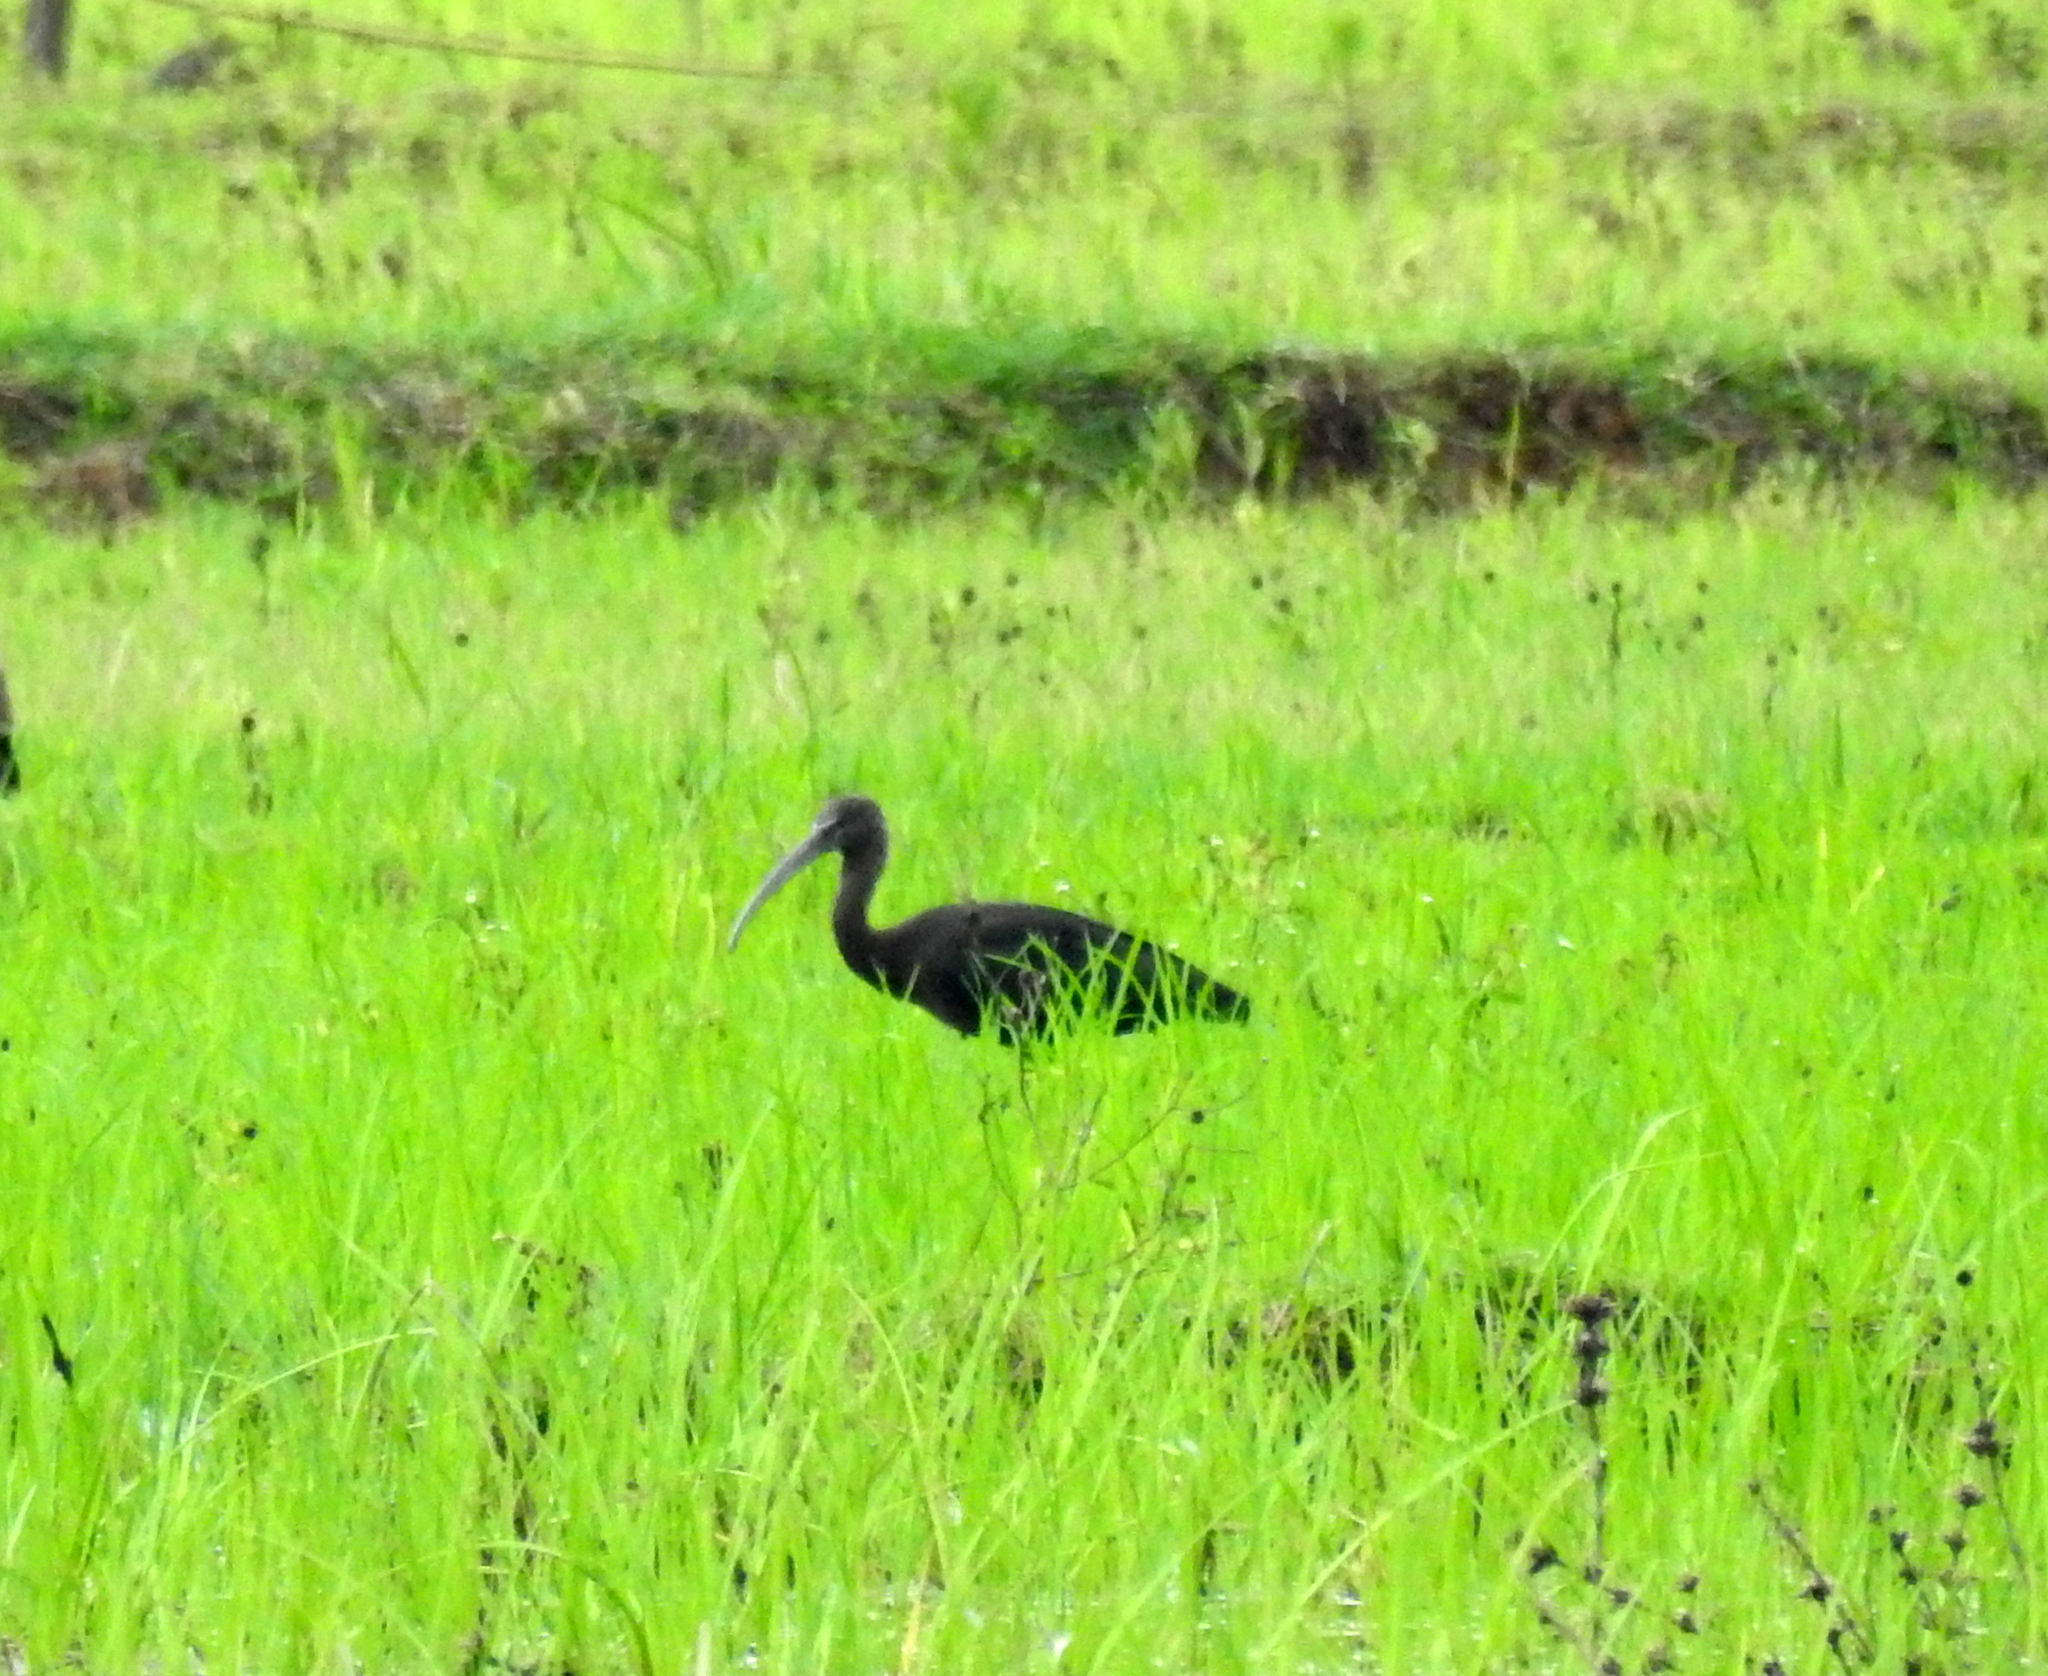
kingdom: Animalia
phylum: Chordata
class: Aves
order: Pelecaniformes
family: Threskiornithidae
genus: Plegadis
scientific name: Plegadis falcinellus
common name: Glossy ibis
